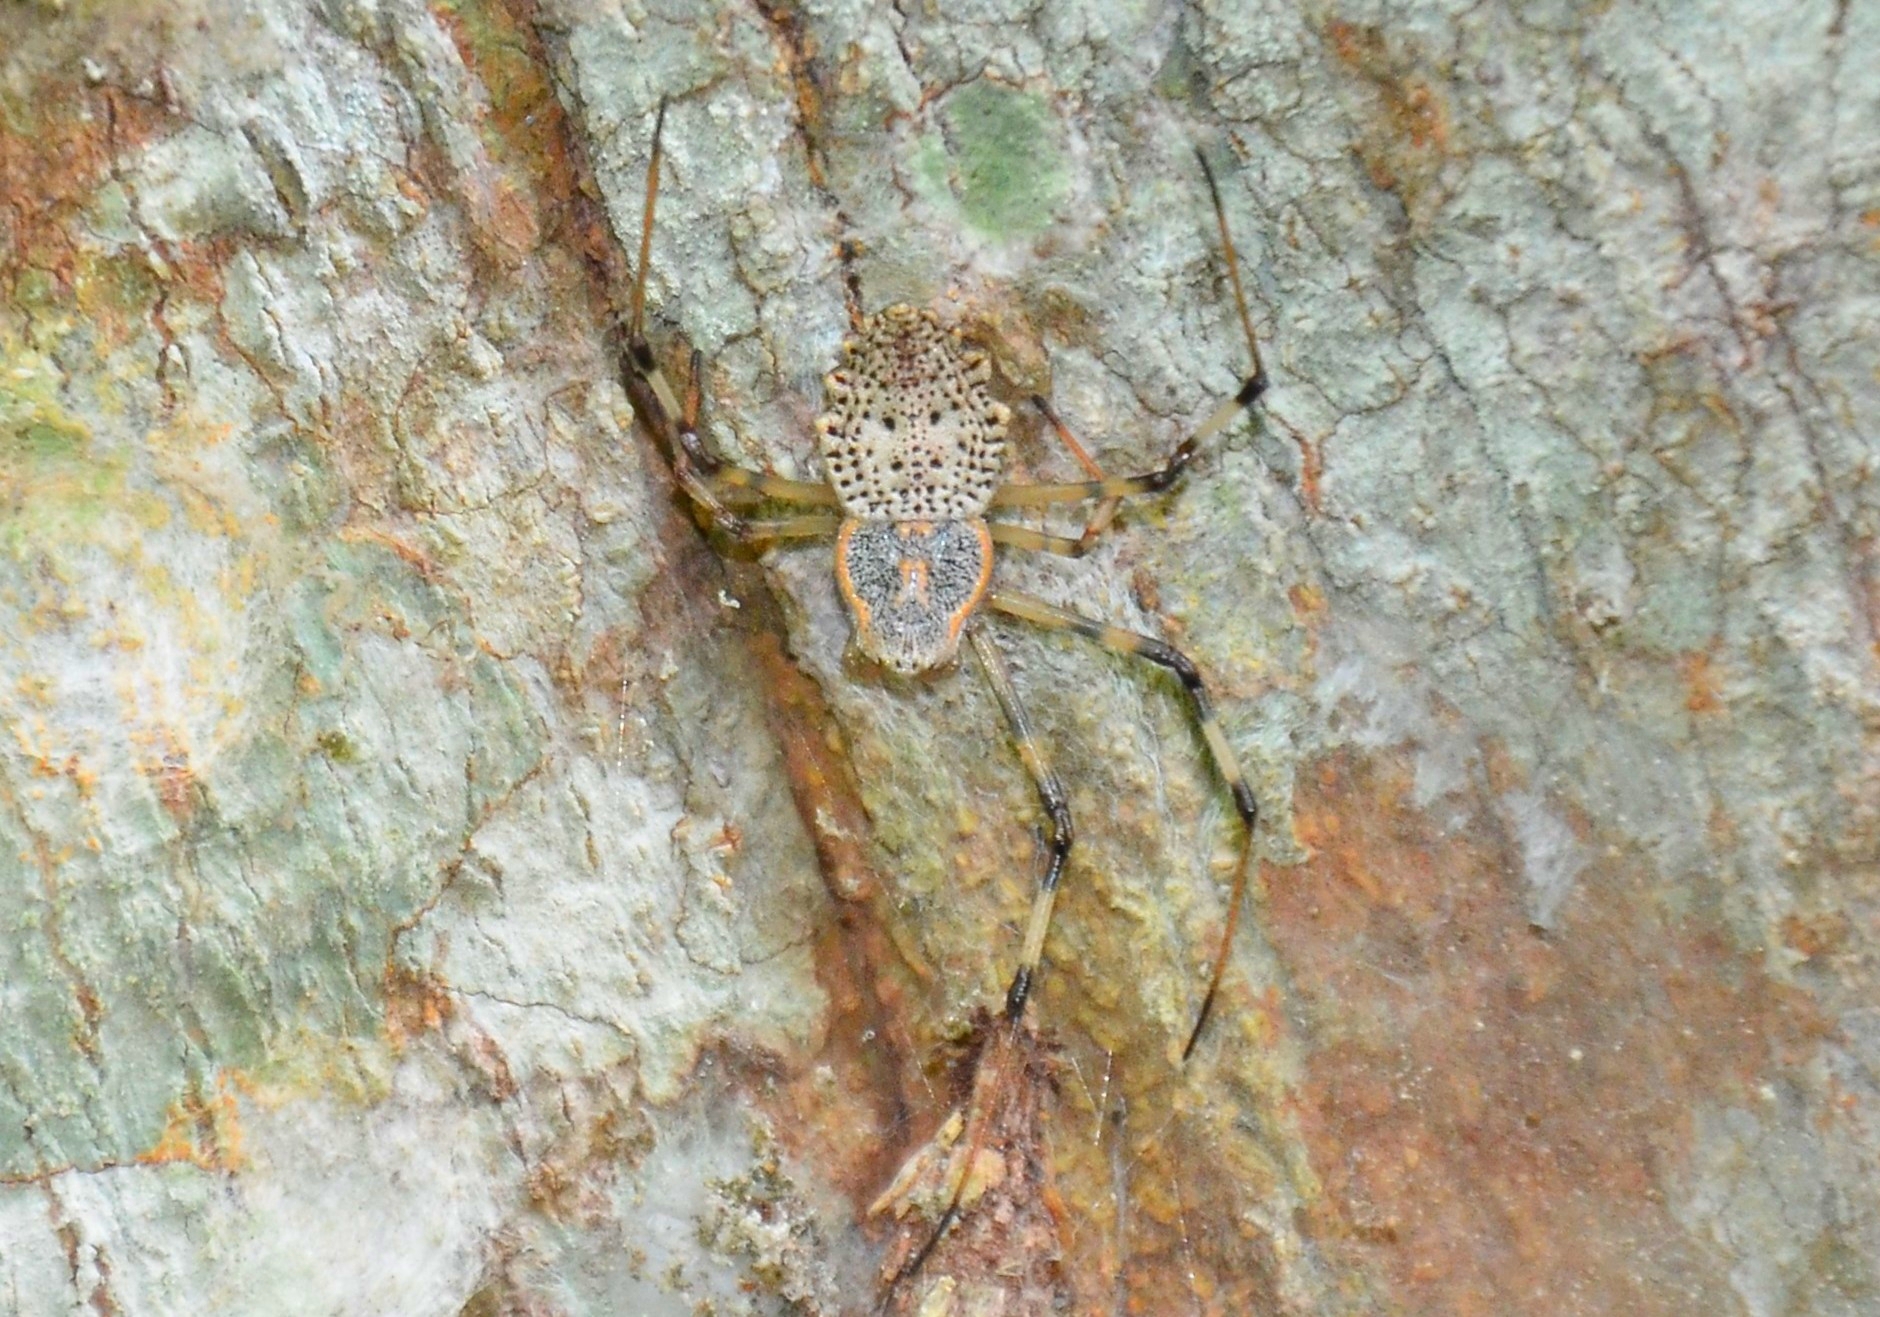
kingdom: Animalia
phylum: Arthropoda
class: Arachnida
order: Araneae
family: Araneidae
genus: Herennia
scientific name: Herennia multipuncta
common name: Spotted coin spider
